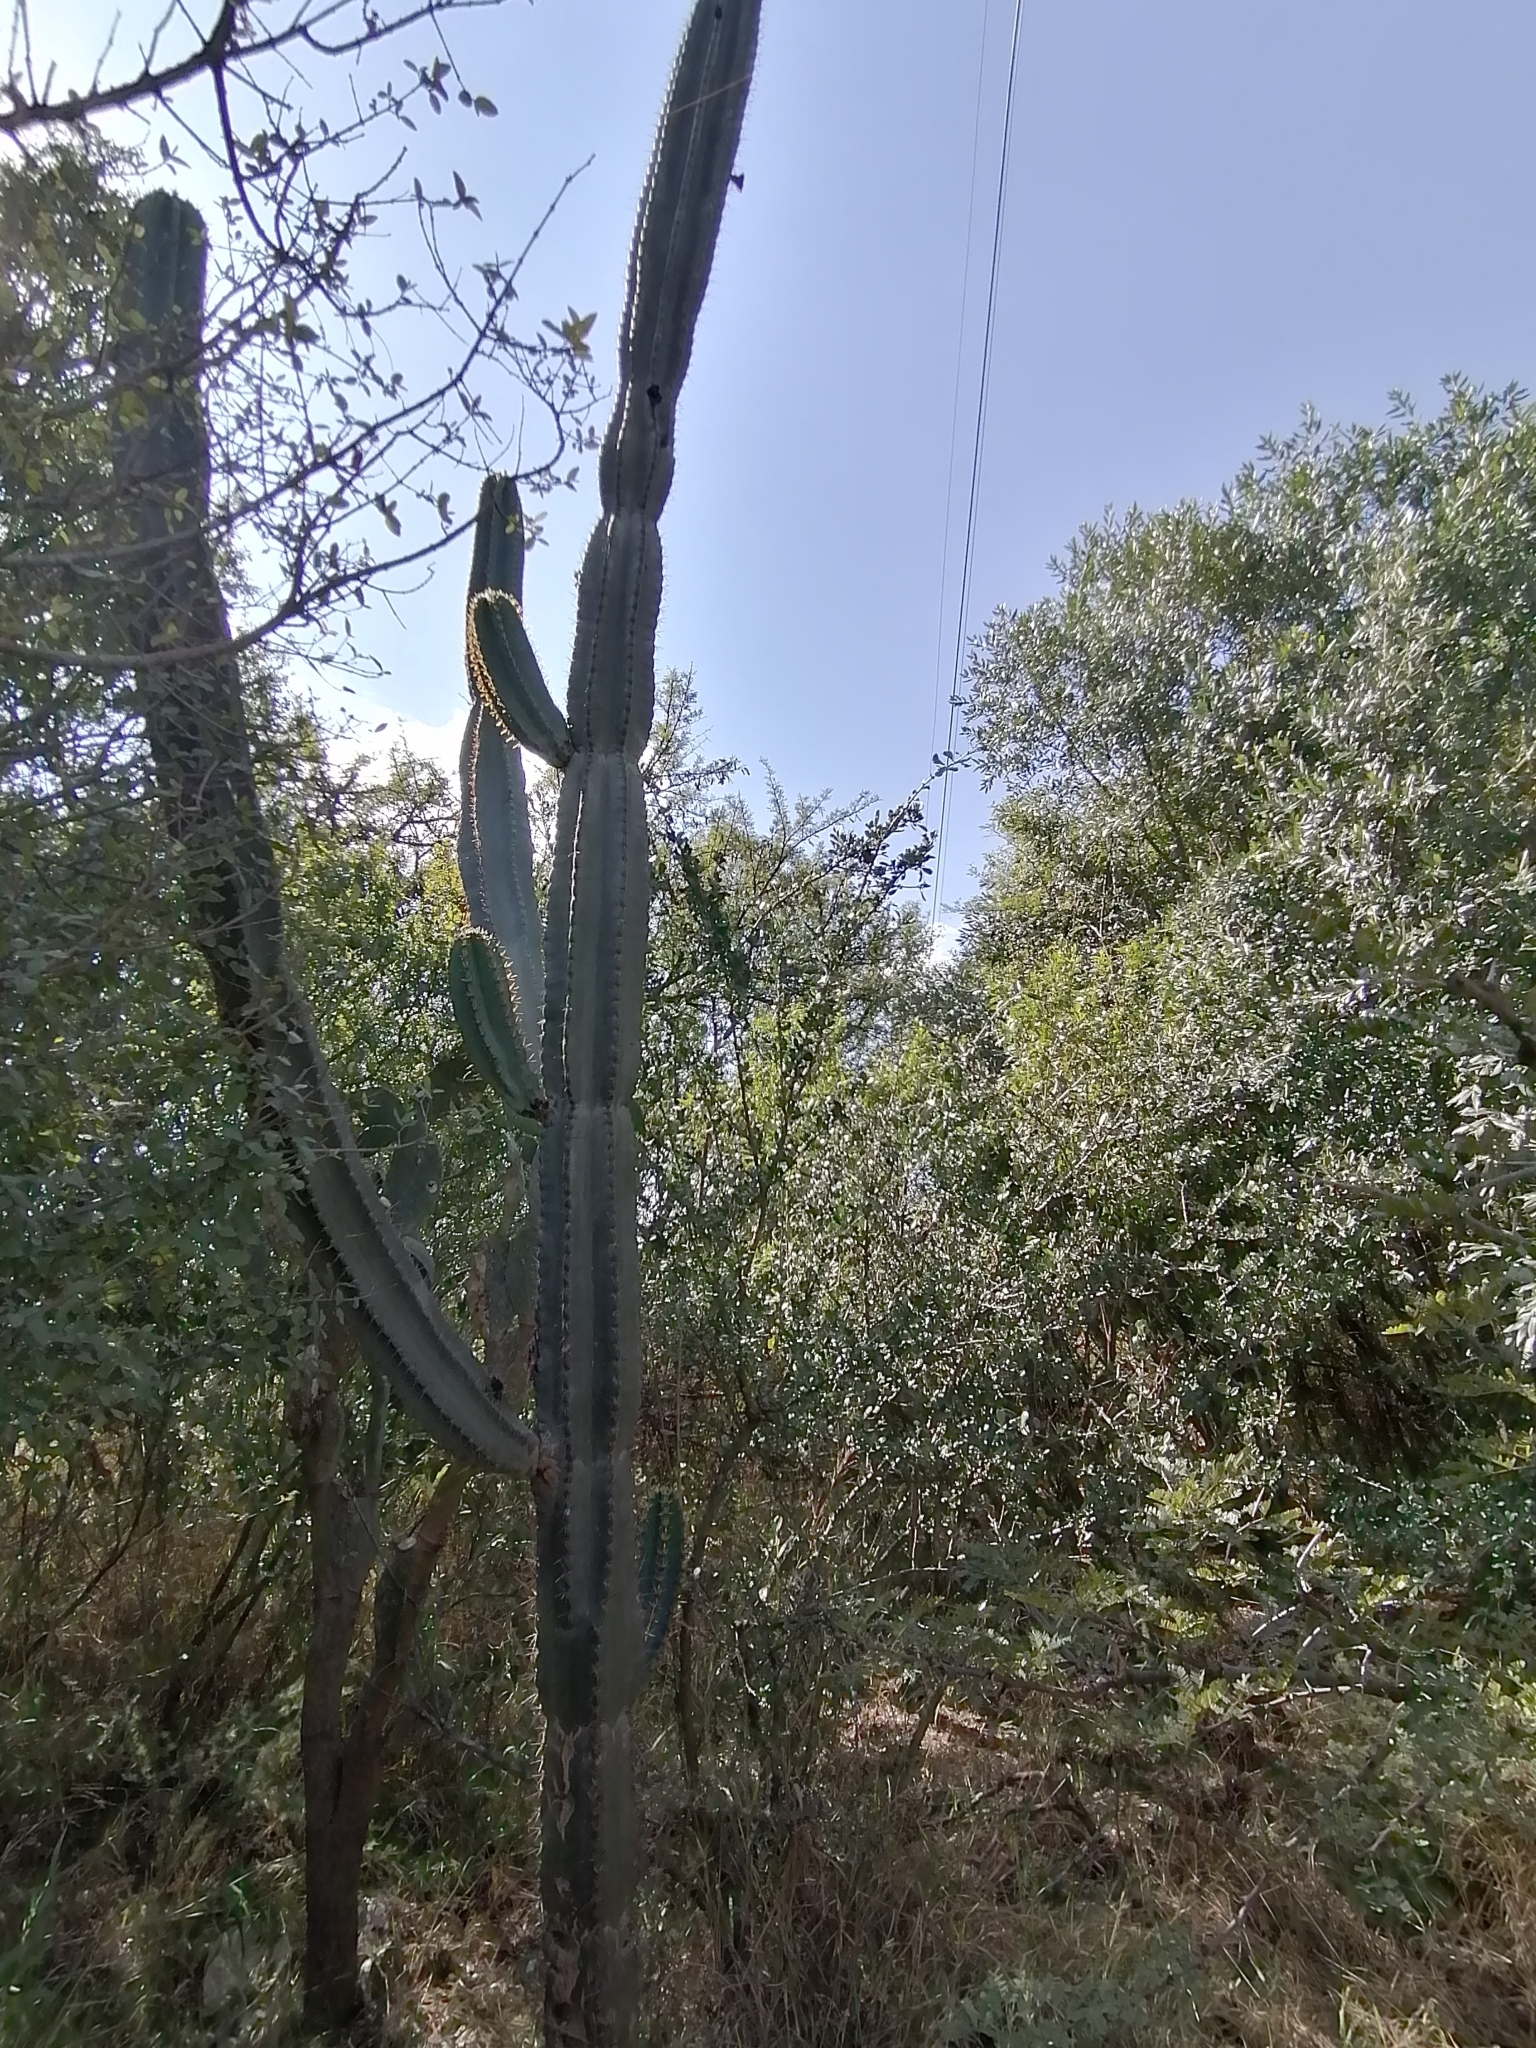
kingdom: Plantae
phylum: Tracheophyta
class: Magnoliopsida
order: Caryophyllales
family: Cactaceae
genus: Cereus
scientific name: Cereus jamacaru
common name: Queen-of-the-night
